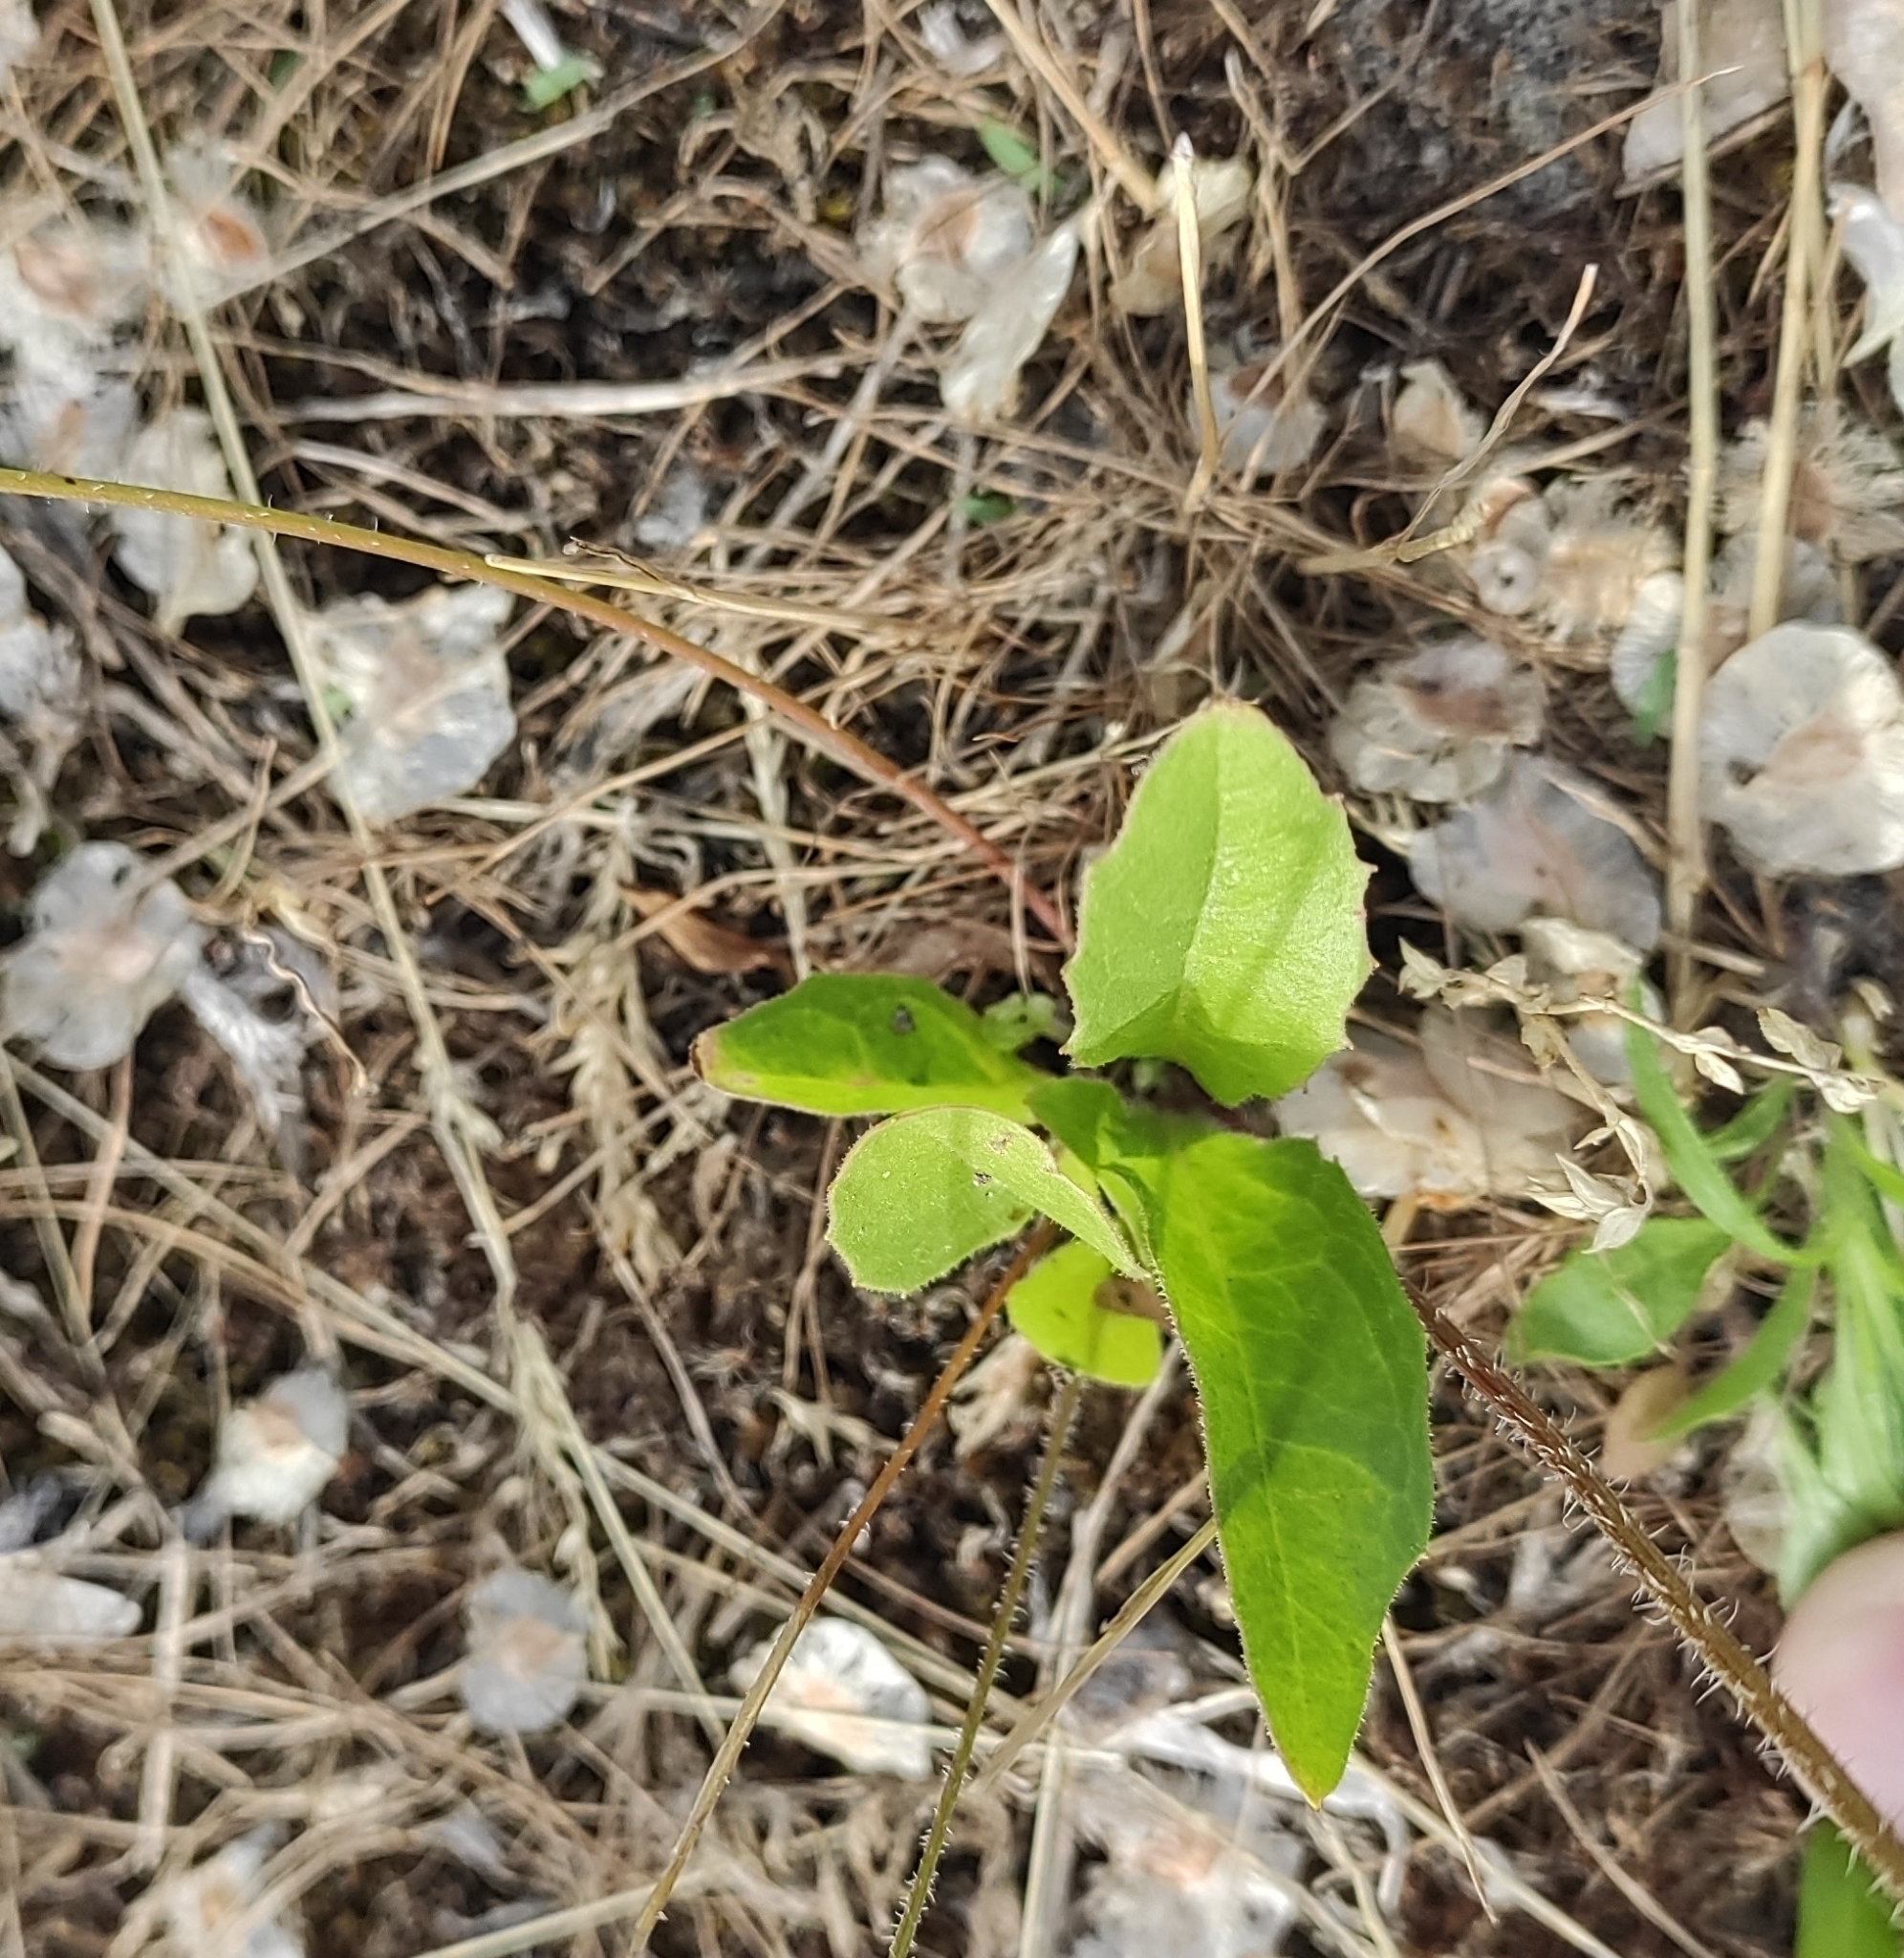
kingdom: Plantae
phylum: Tracheophyta
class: Magnoliopsida
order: Asterales
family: Asteraceae
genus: Crepis
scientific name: Crepis sancta
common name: Hawk's-beard
